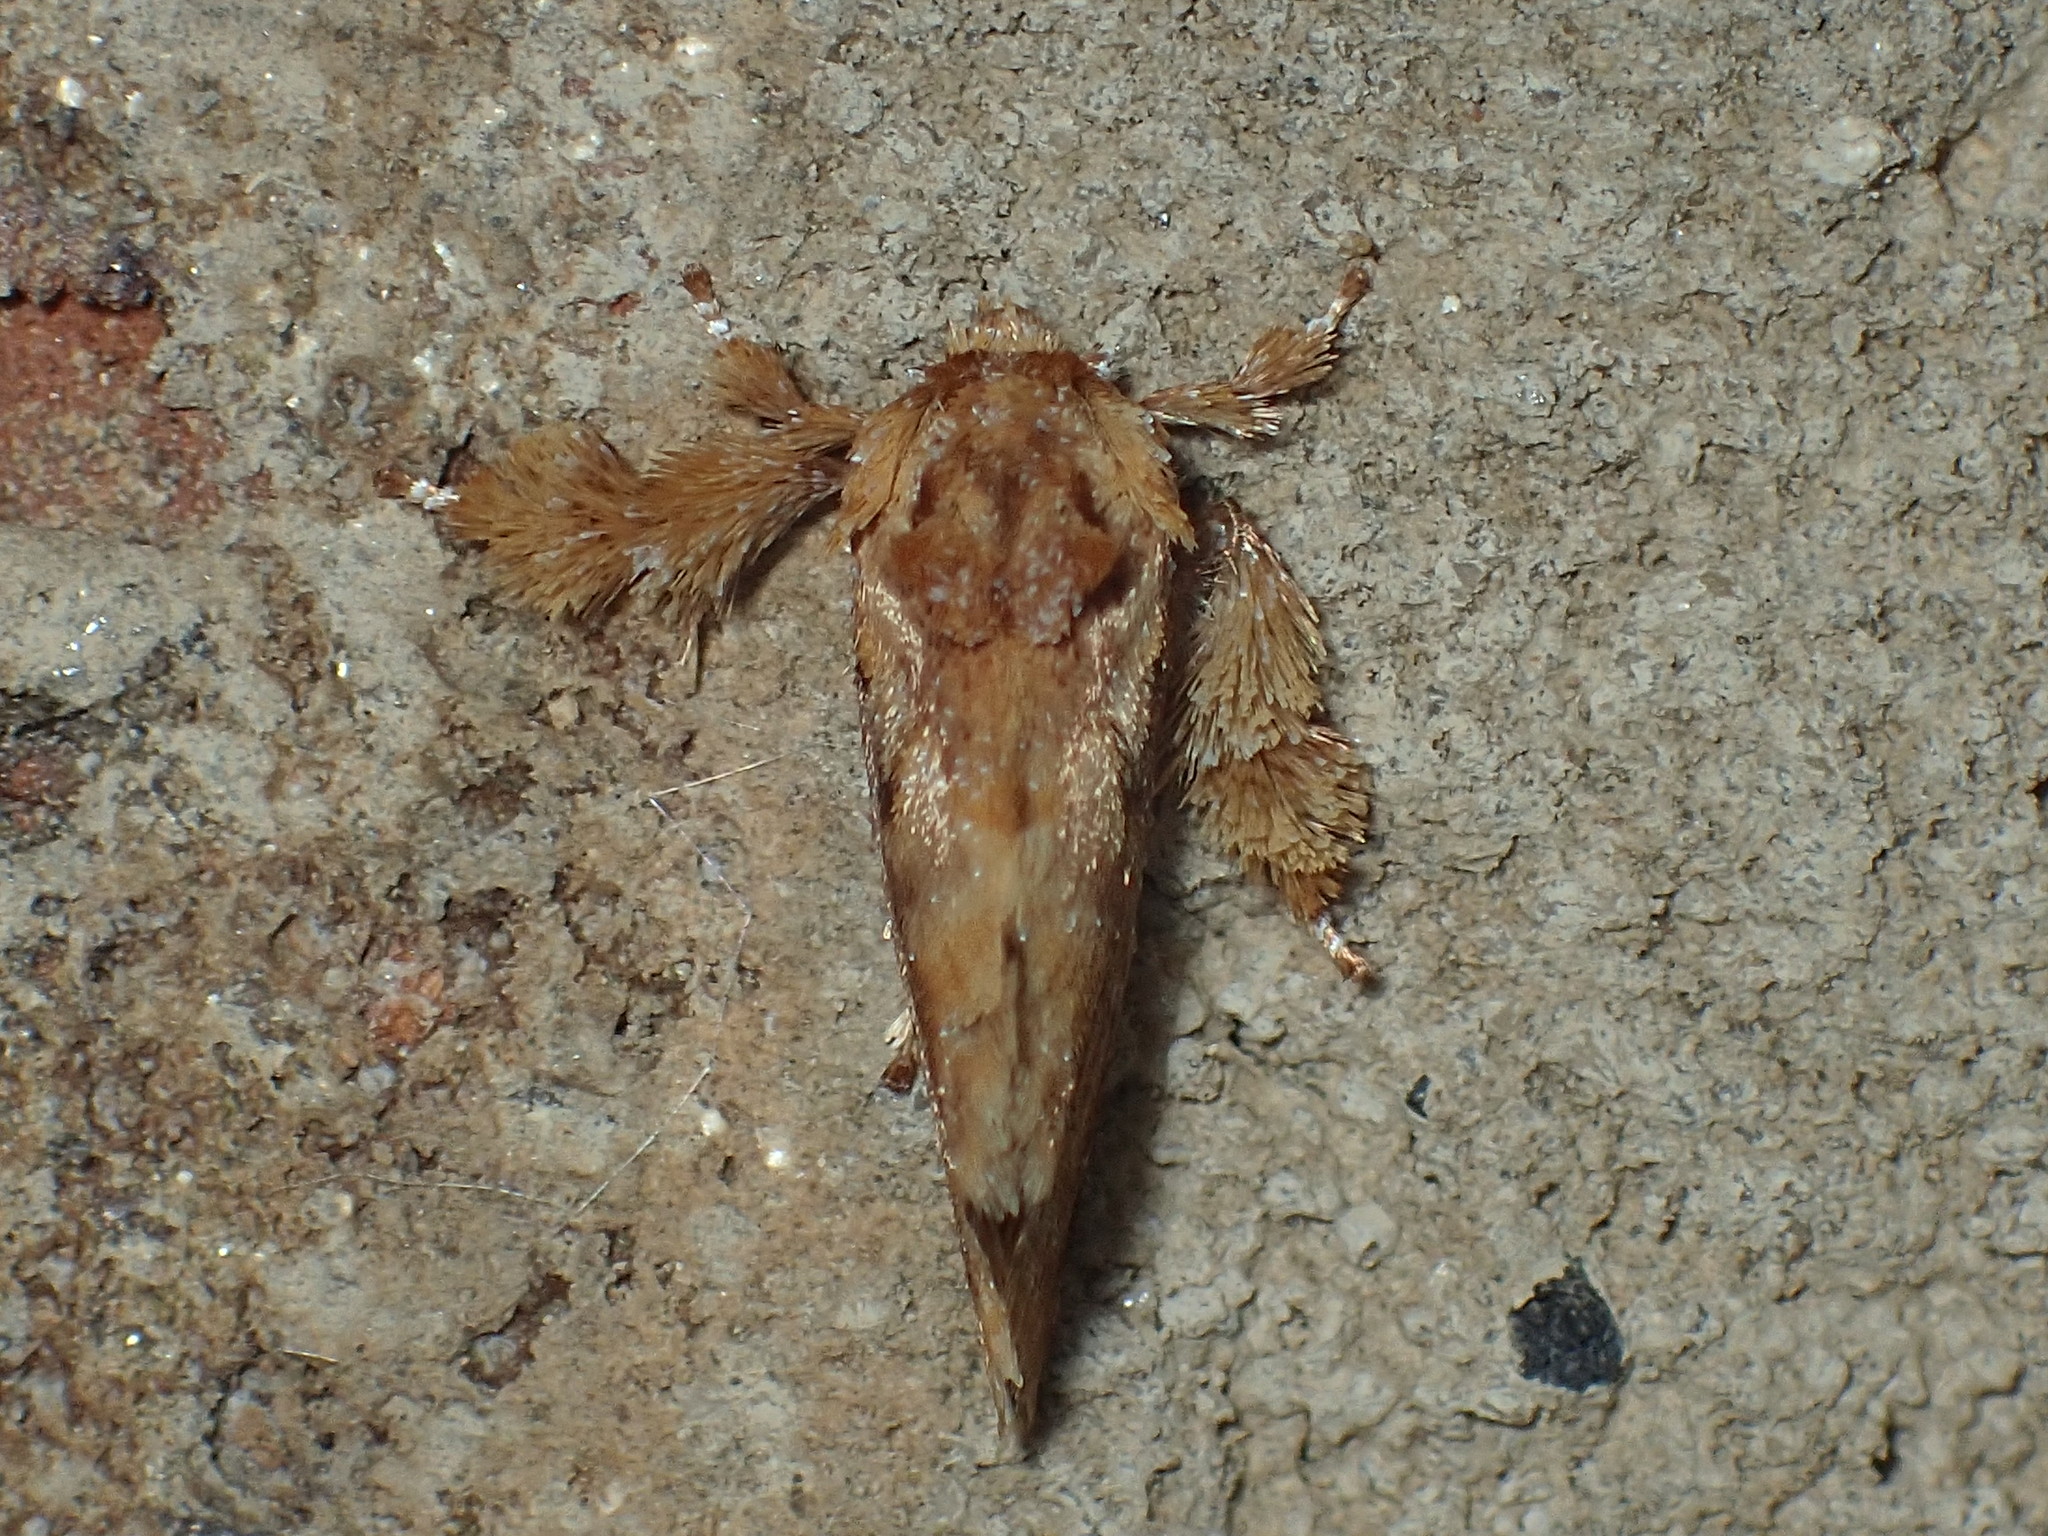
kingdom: Animalia
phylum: Arthropoda
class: Insecta
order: Lepidoptera
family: Limacodidae
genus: Isochaetes
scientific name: Isochaetes beutenmuelleri
